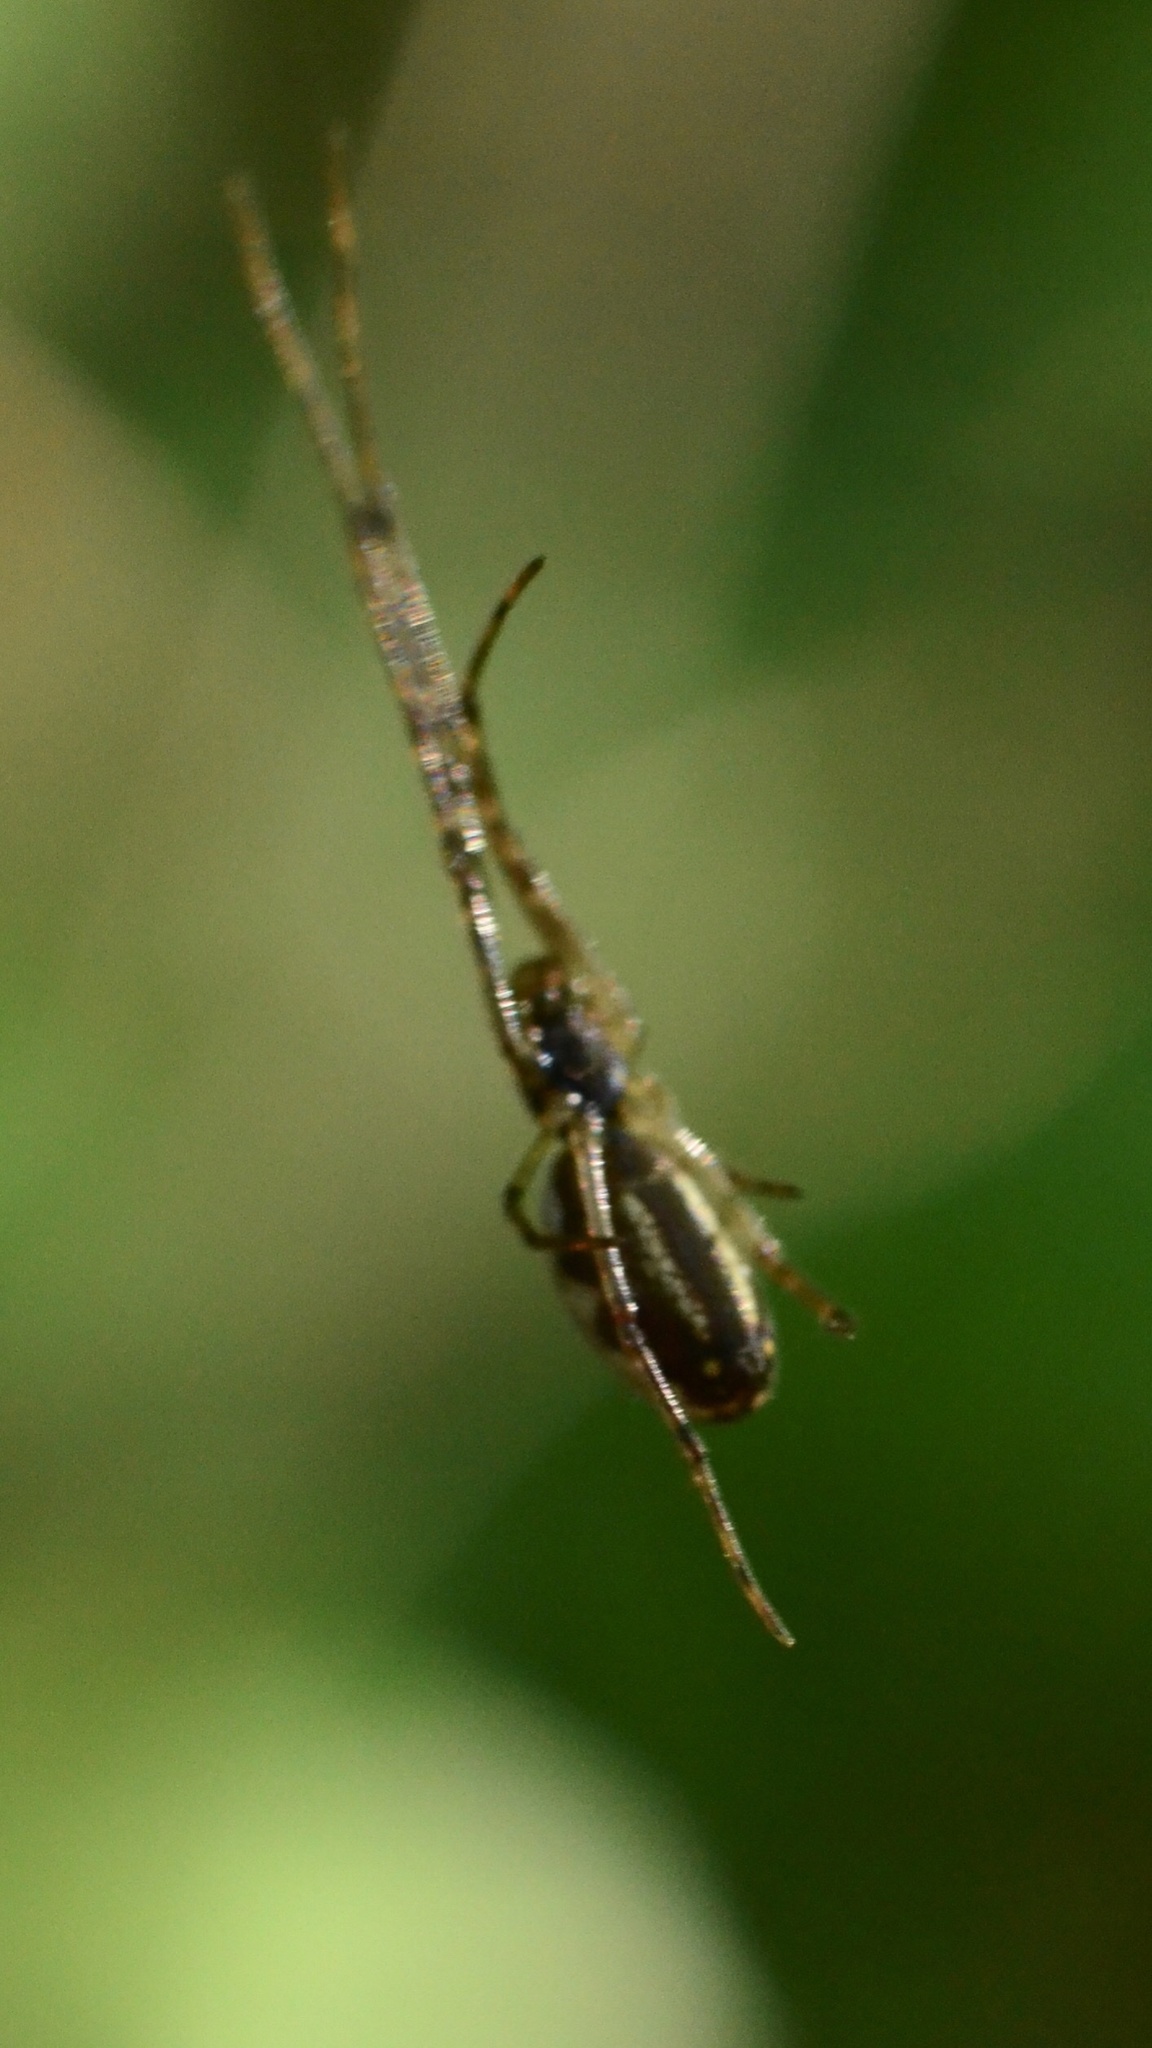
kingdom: Animalia
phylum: Arthropoda
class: Arachnida
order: Araneae
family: Tetragnathidae
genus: Tetragnatha
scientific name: Tetragnatha
